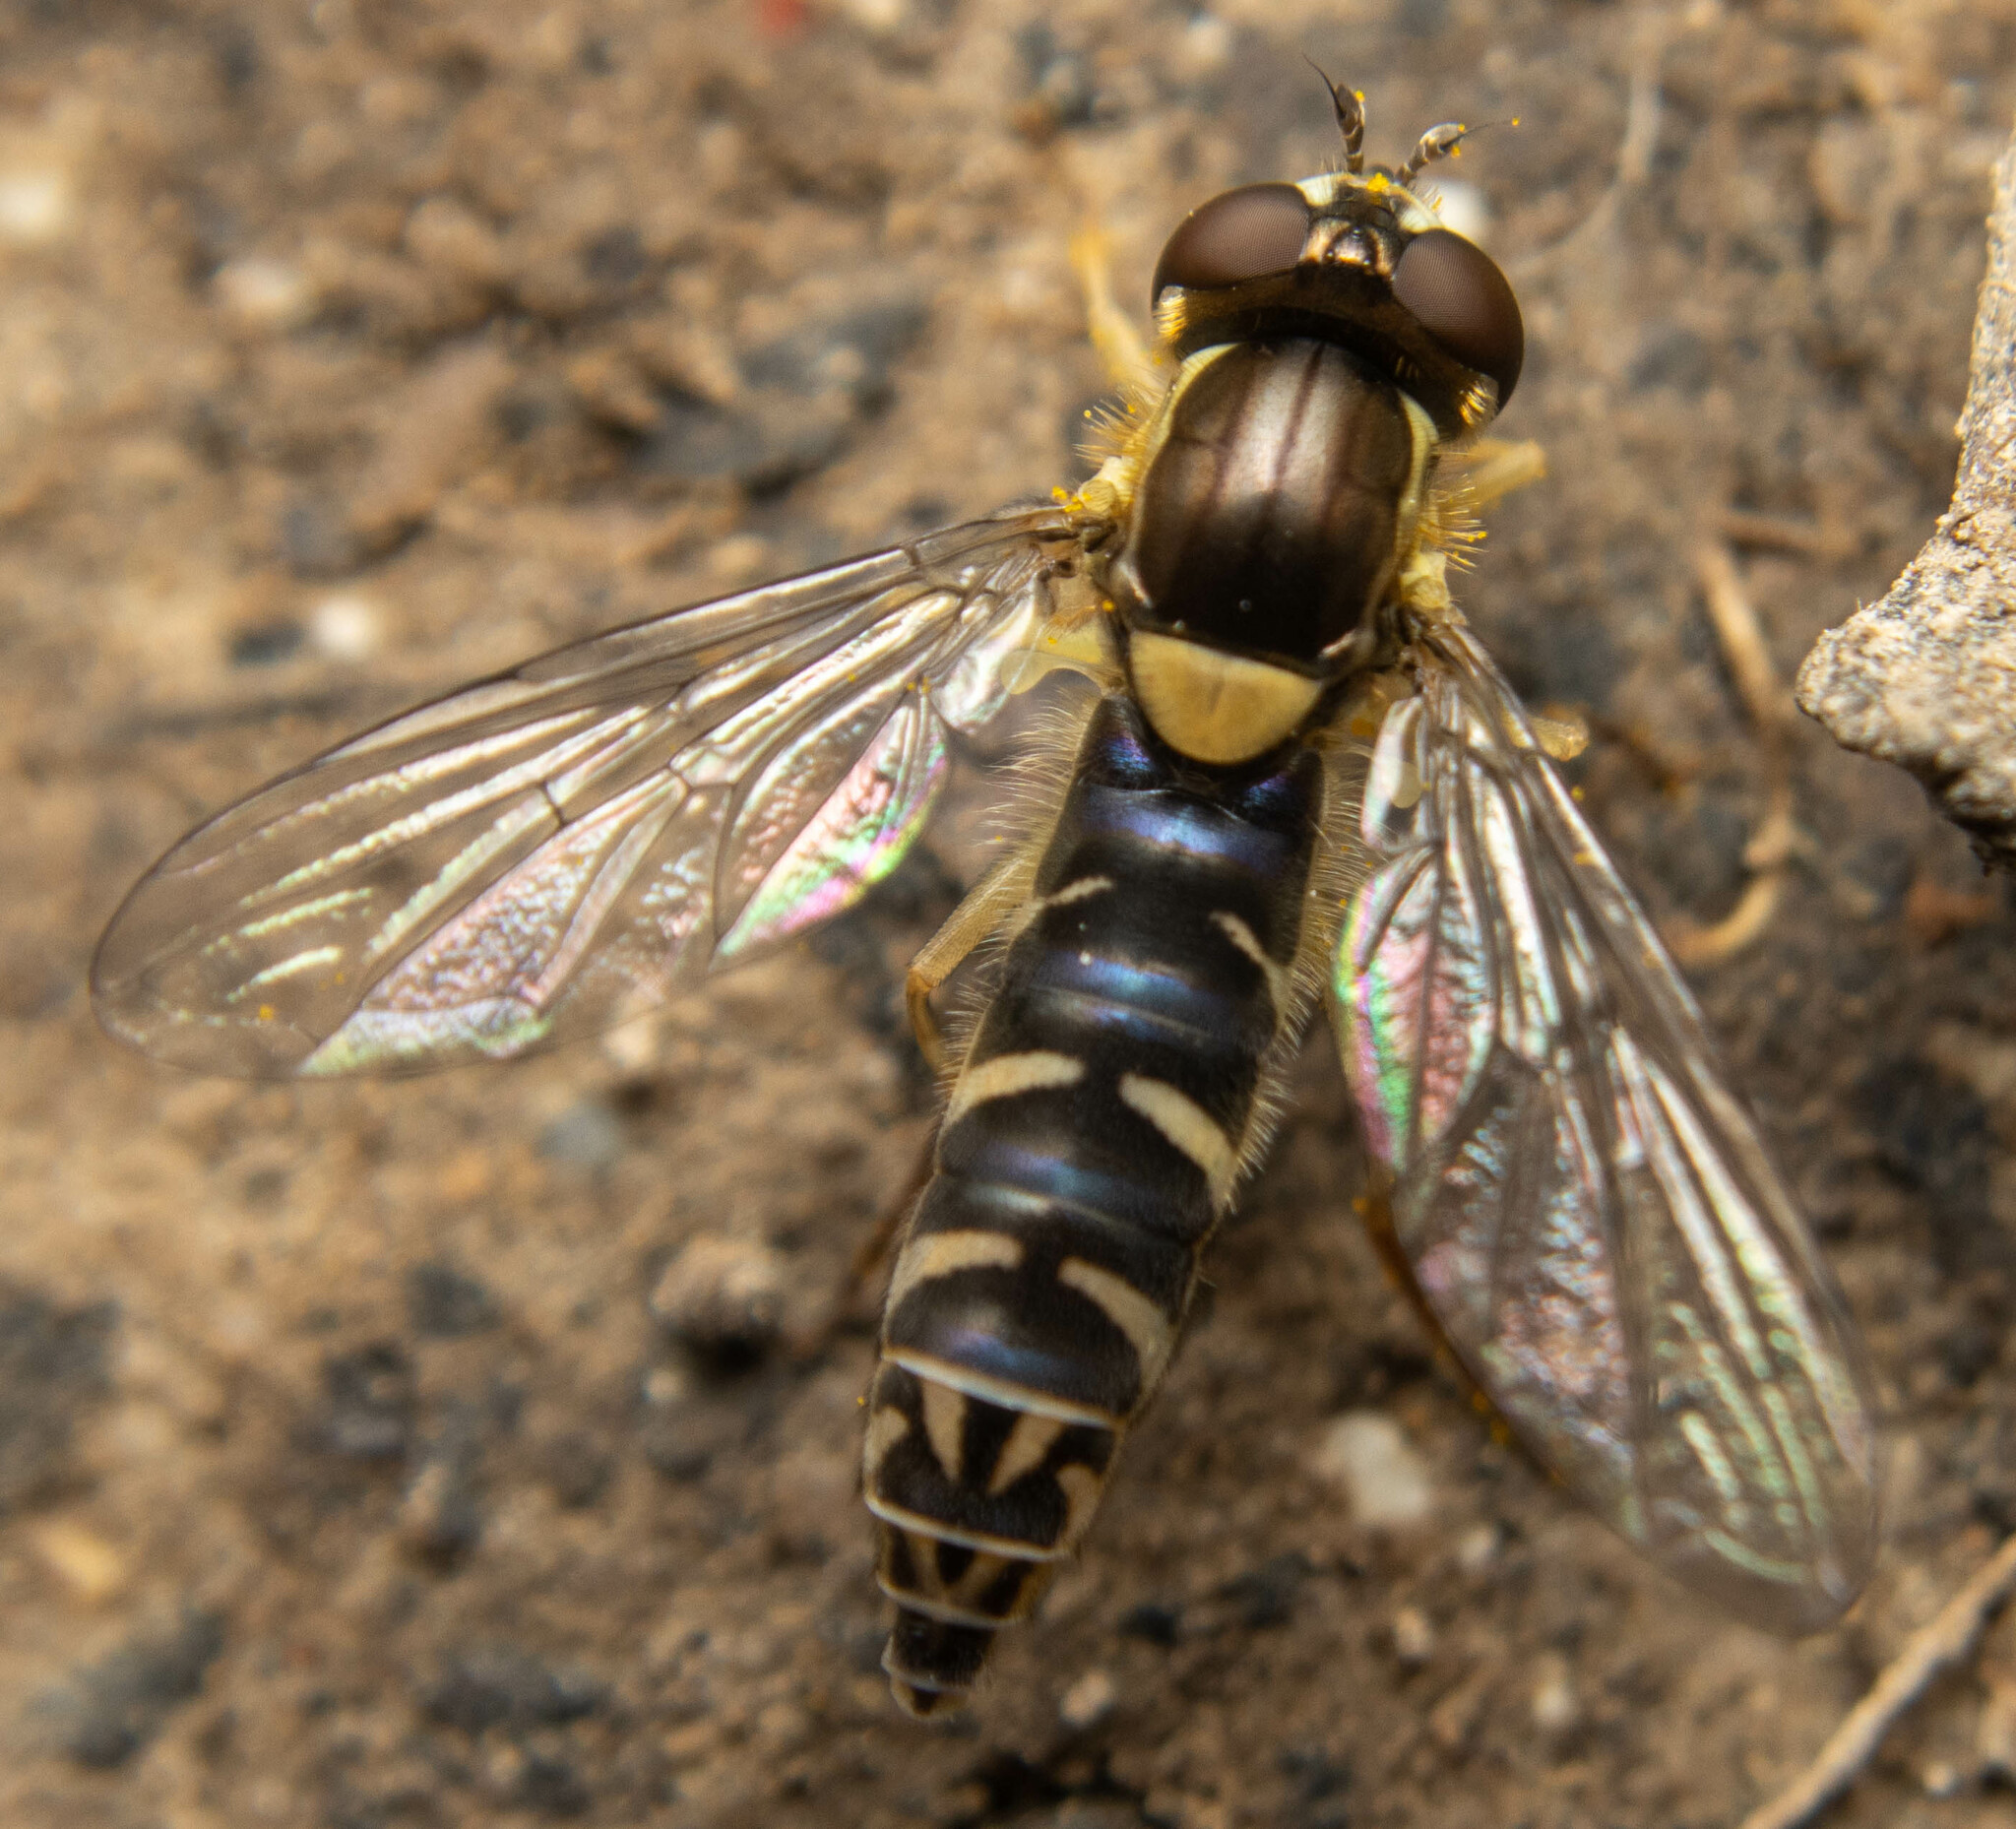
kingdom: Animalia
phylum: Arthropoda
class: Insecta
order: Diptera
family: Syrphidae
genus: Sphaerophoria
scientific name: Sphaerophoria
